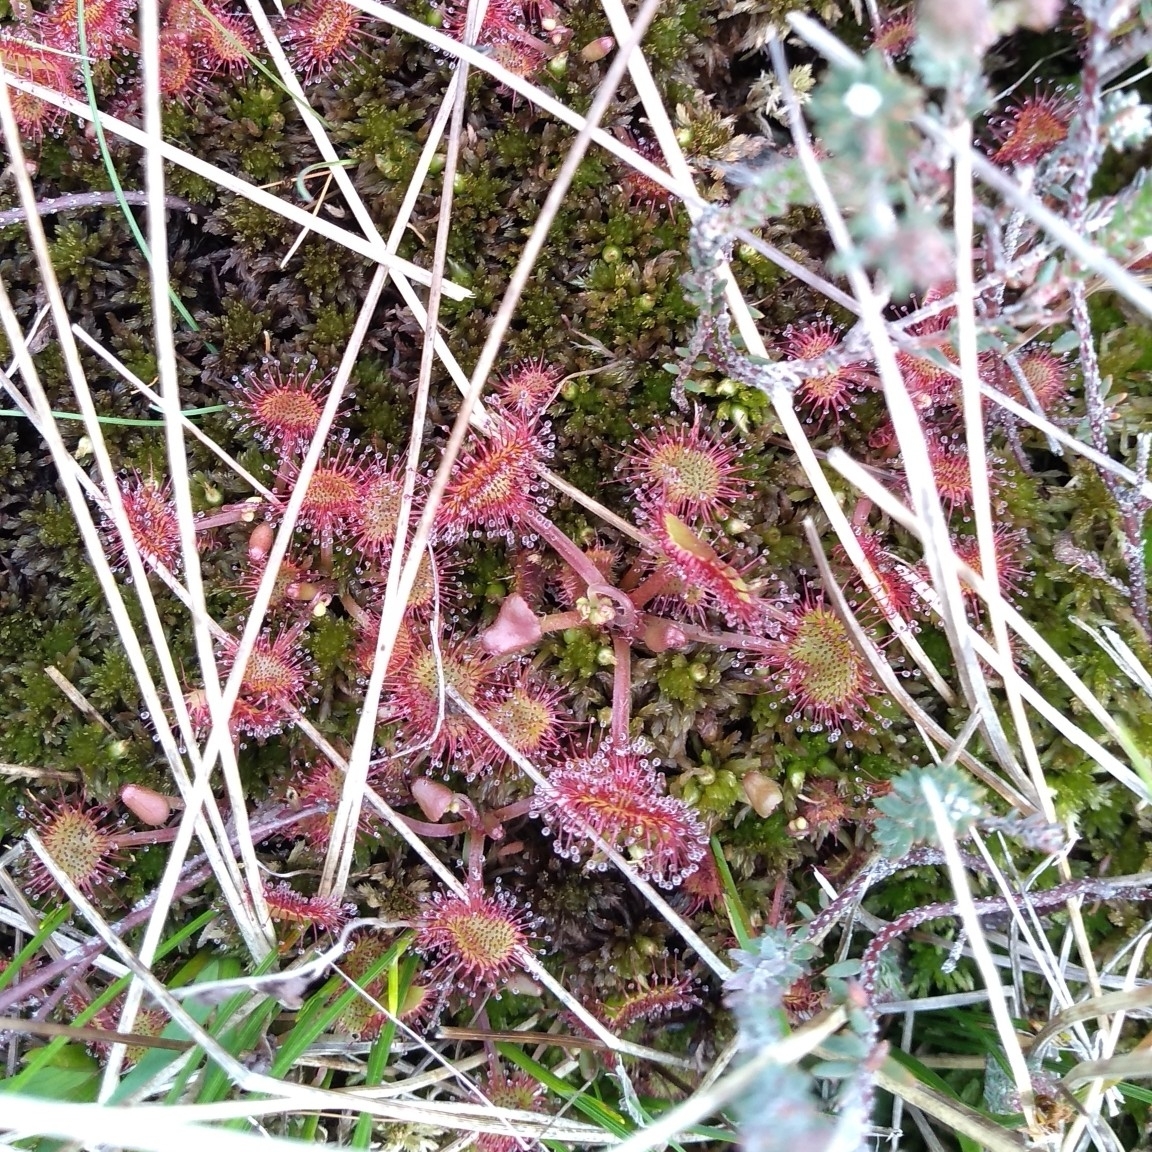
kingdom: Plantae
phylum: Tracheophyta
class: Magnoliopsida
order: Caryophyllales
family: Droseraceae
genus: Drosera
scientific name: Drosera rotundifolia
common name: Round-leaved sundew
